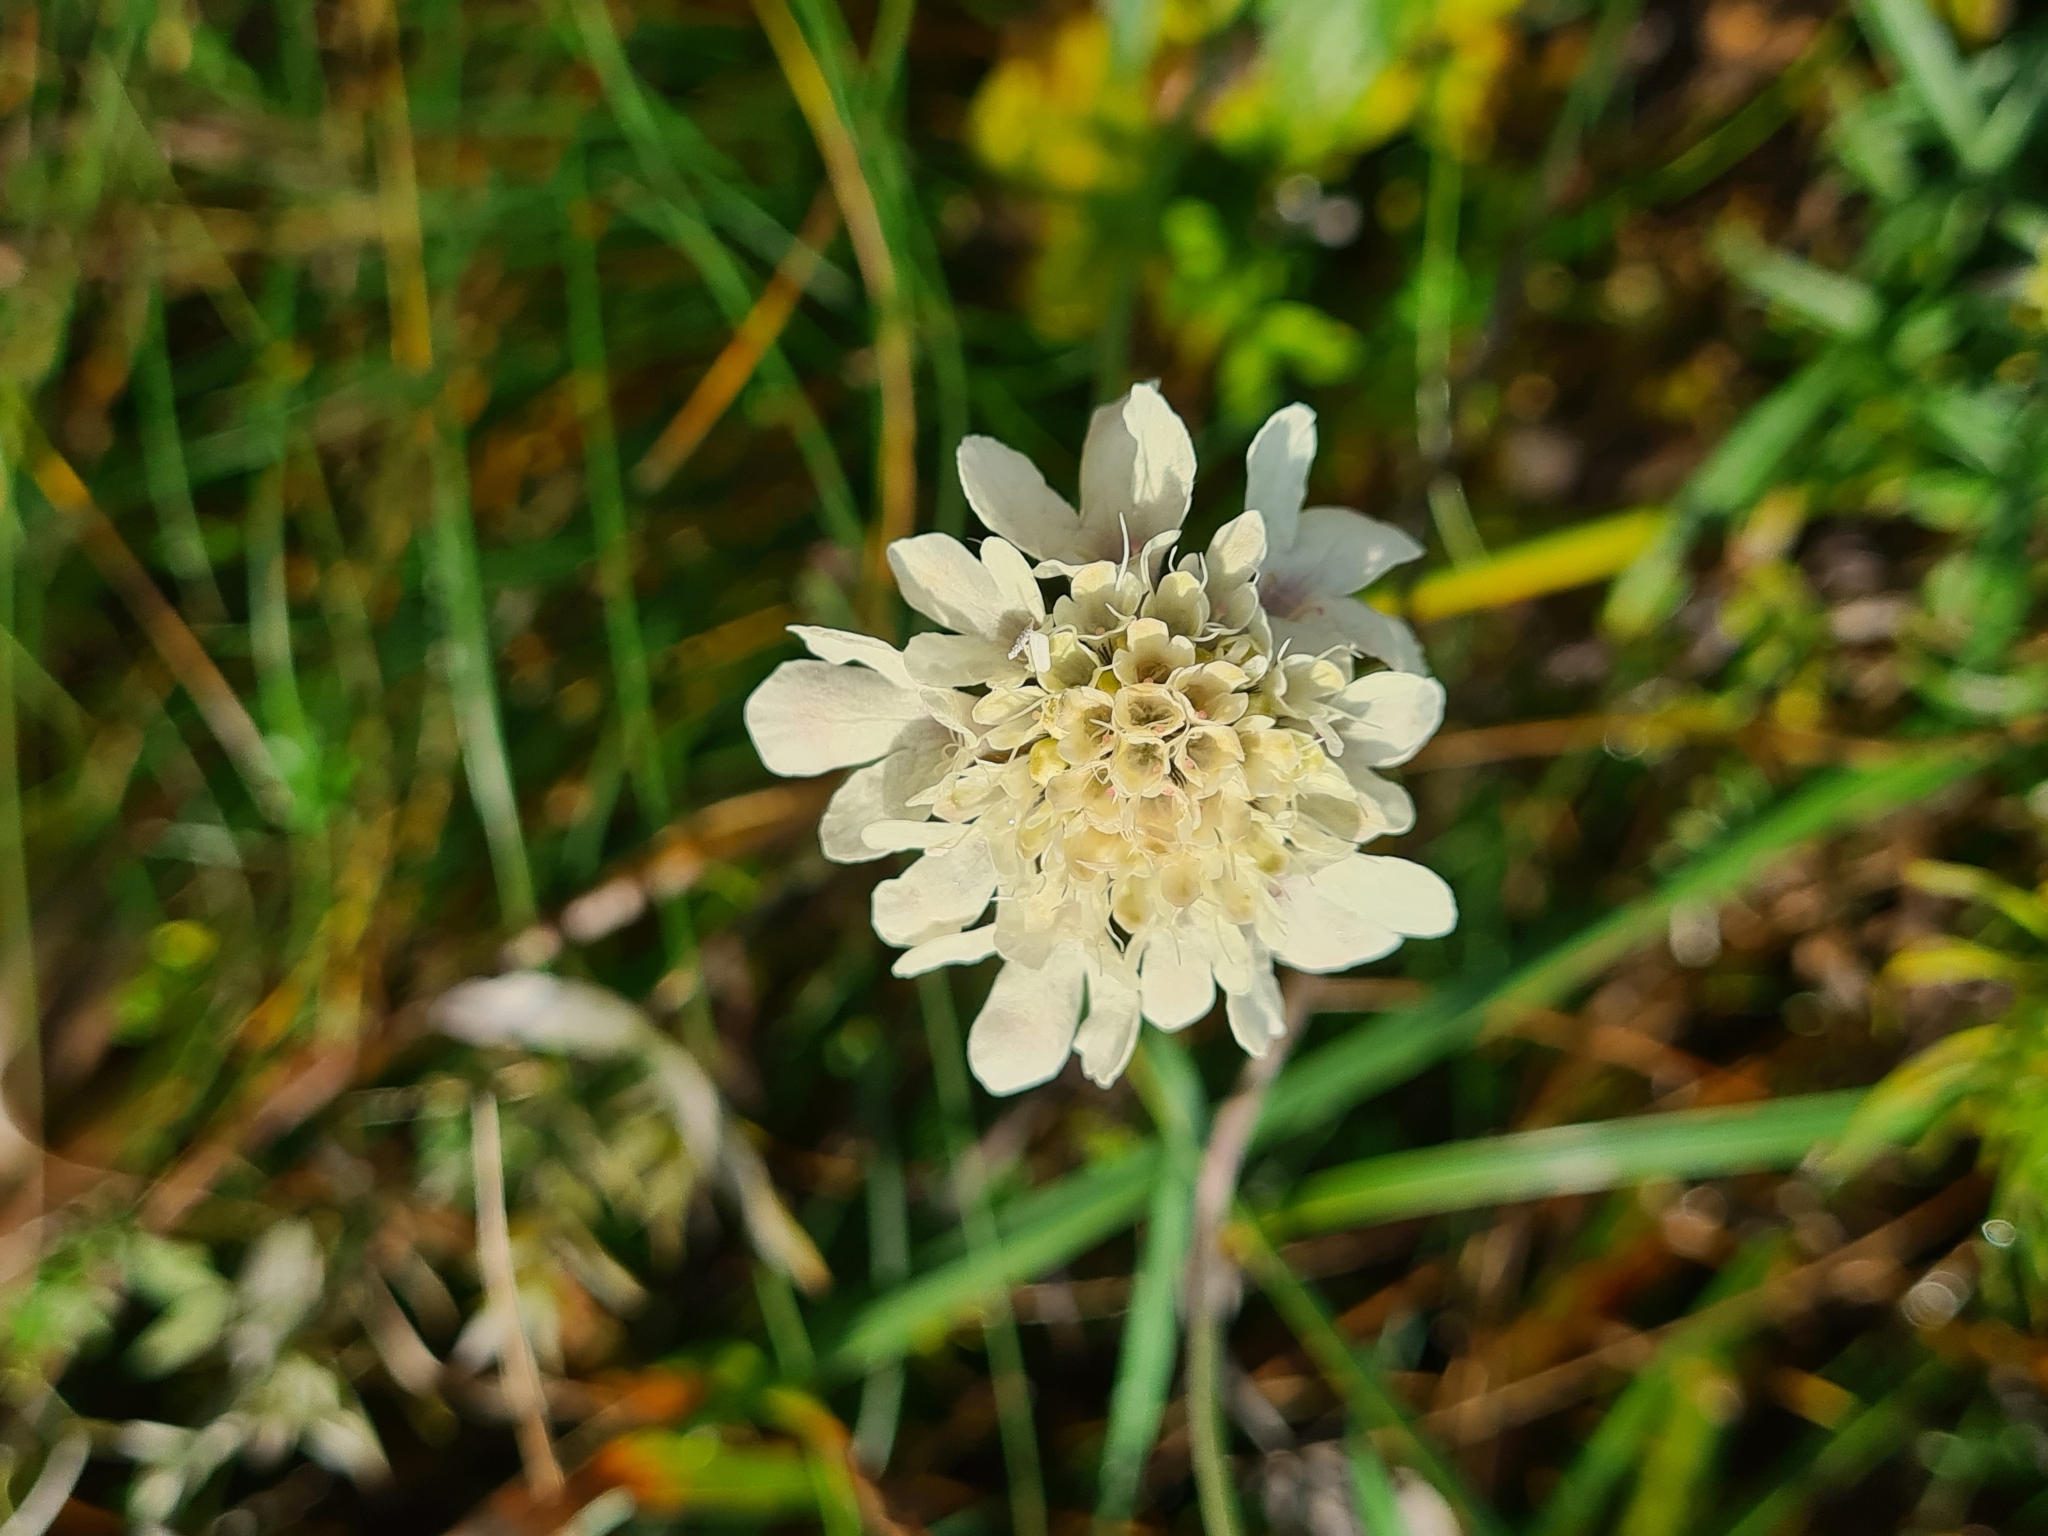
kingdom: Plantae
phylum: Tracheophyta
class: Magnoliopsida
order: Dipsacales
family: Caprifoliaceae
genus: Scabiosa
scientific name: Scabiosa ochroleuca
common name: Cream pincushions
